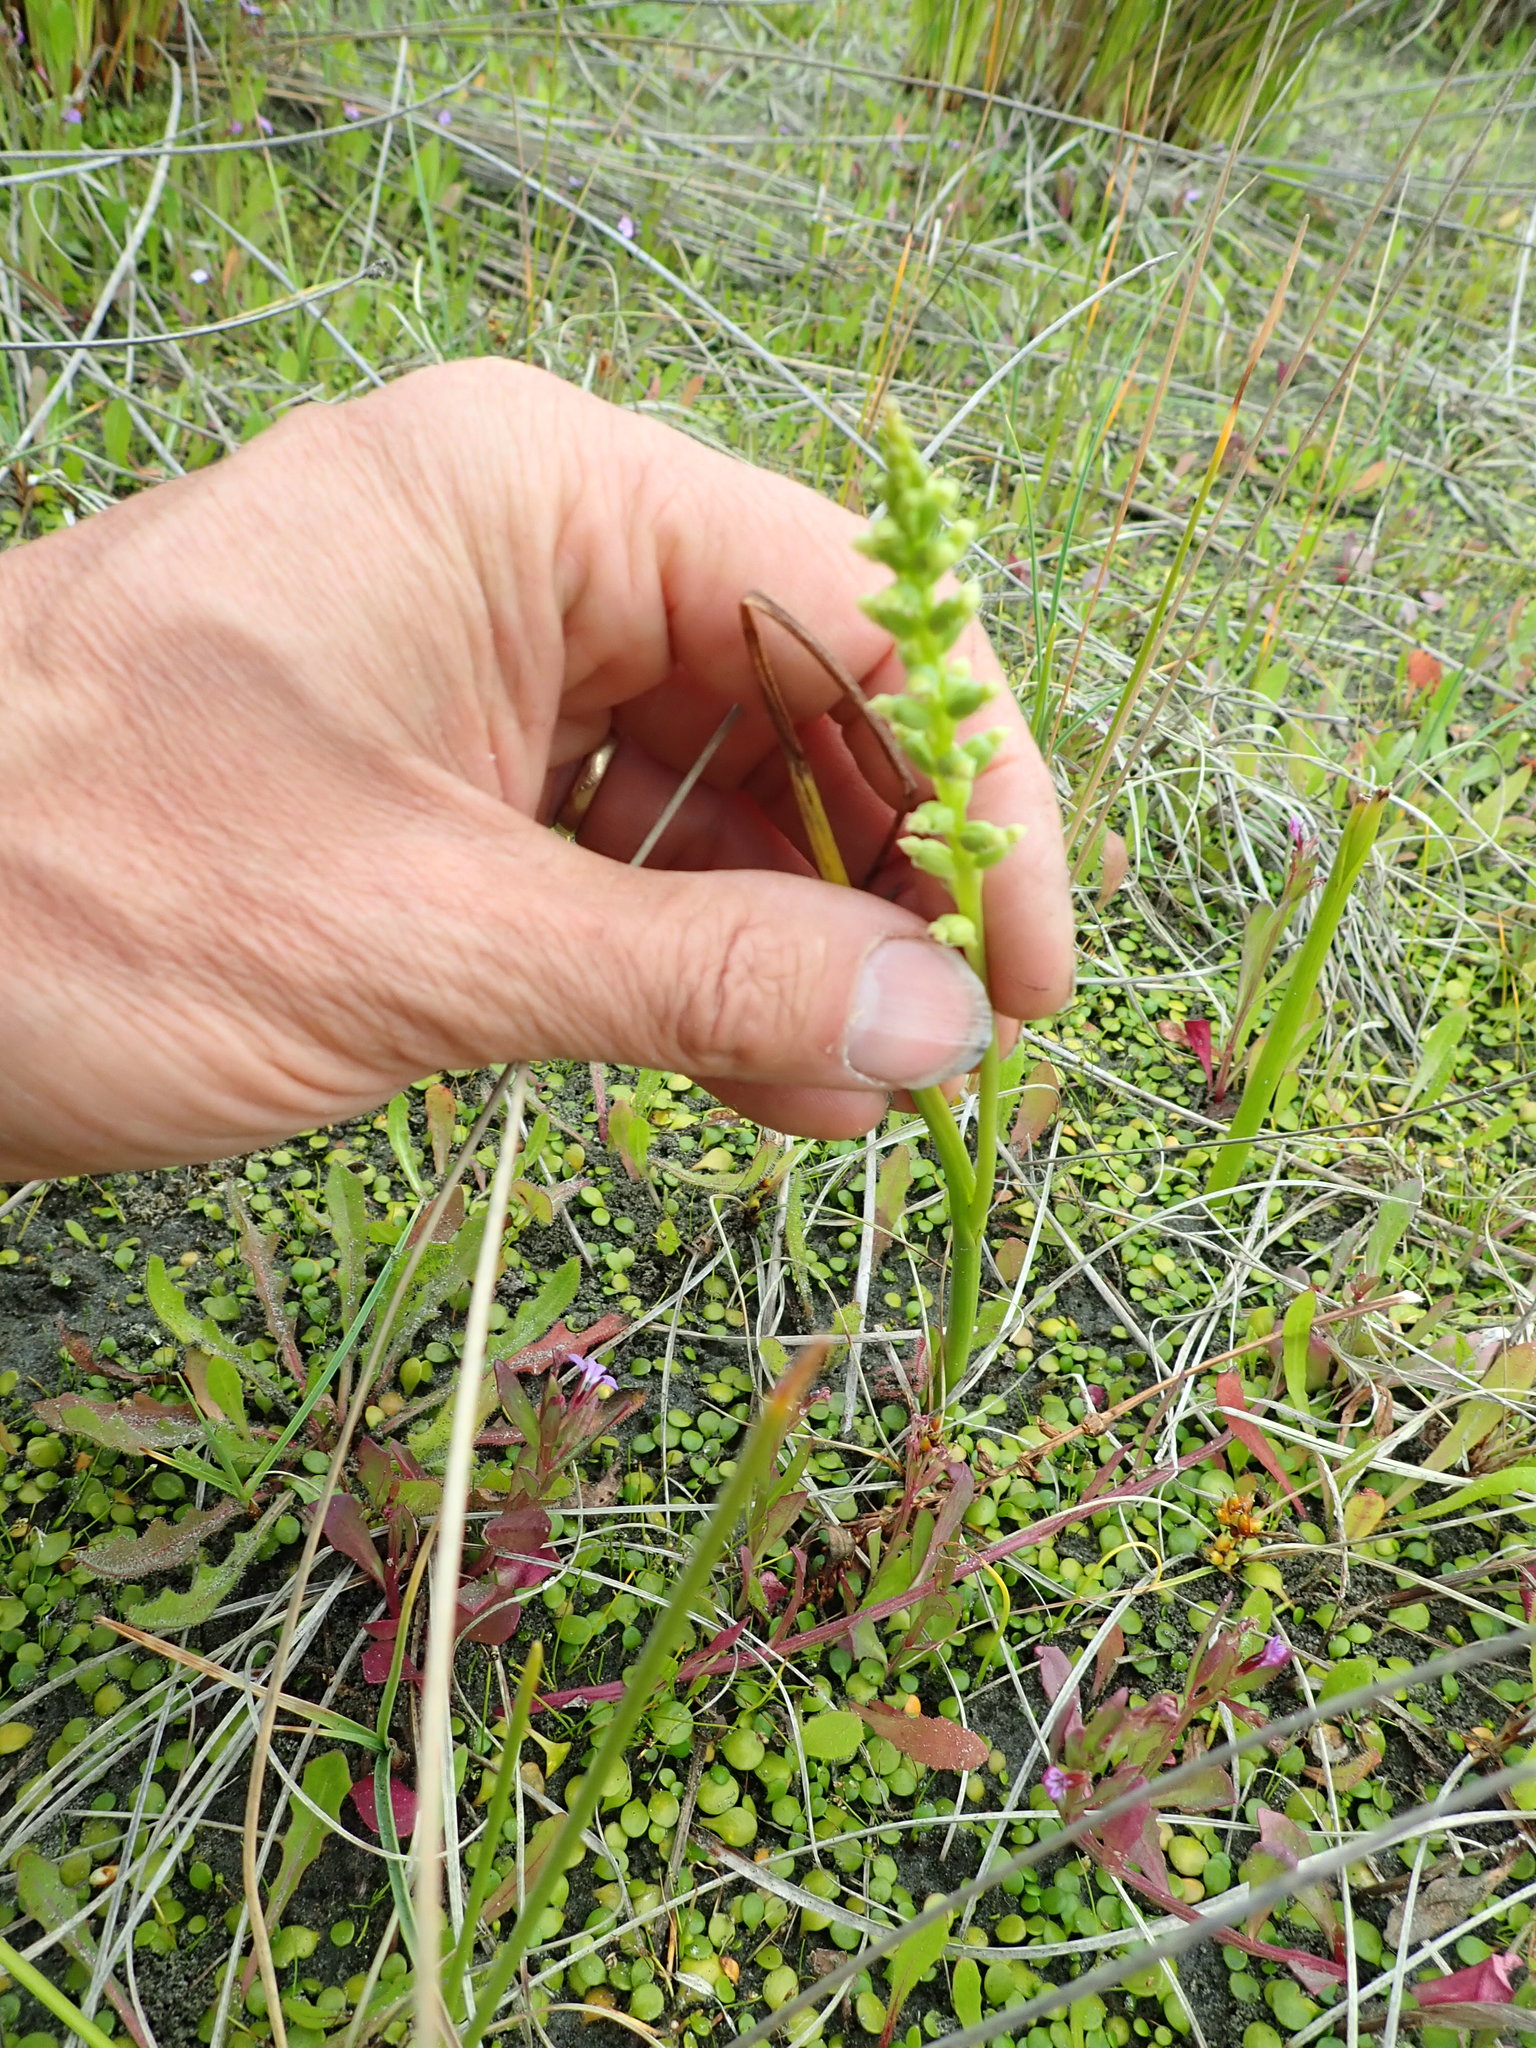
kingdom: Plantae
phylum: Tracheophyta
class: Liliopsida
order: Asparagales
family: Orchidaceae
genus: Microtis
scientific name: Microtis unifolia
